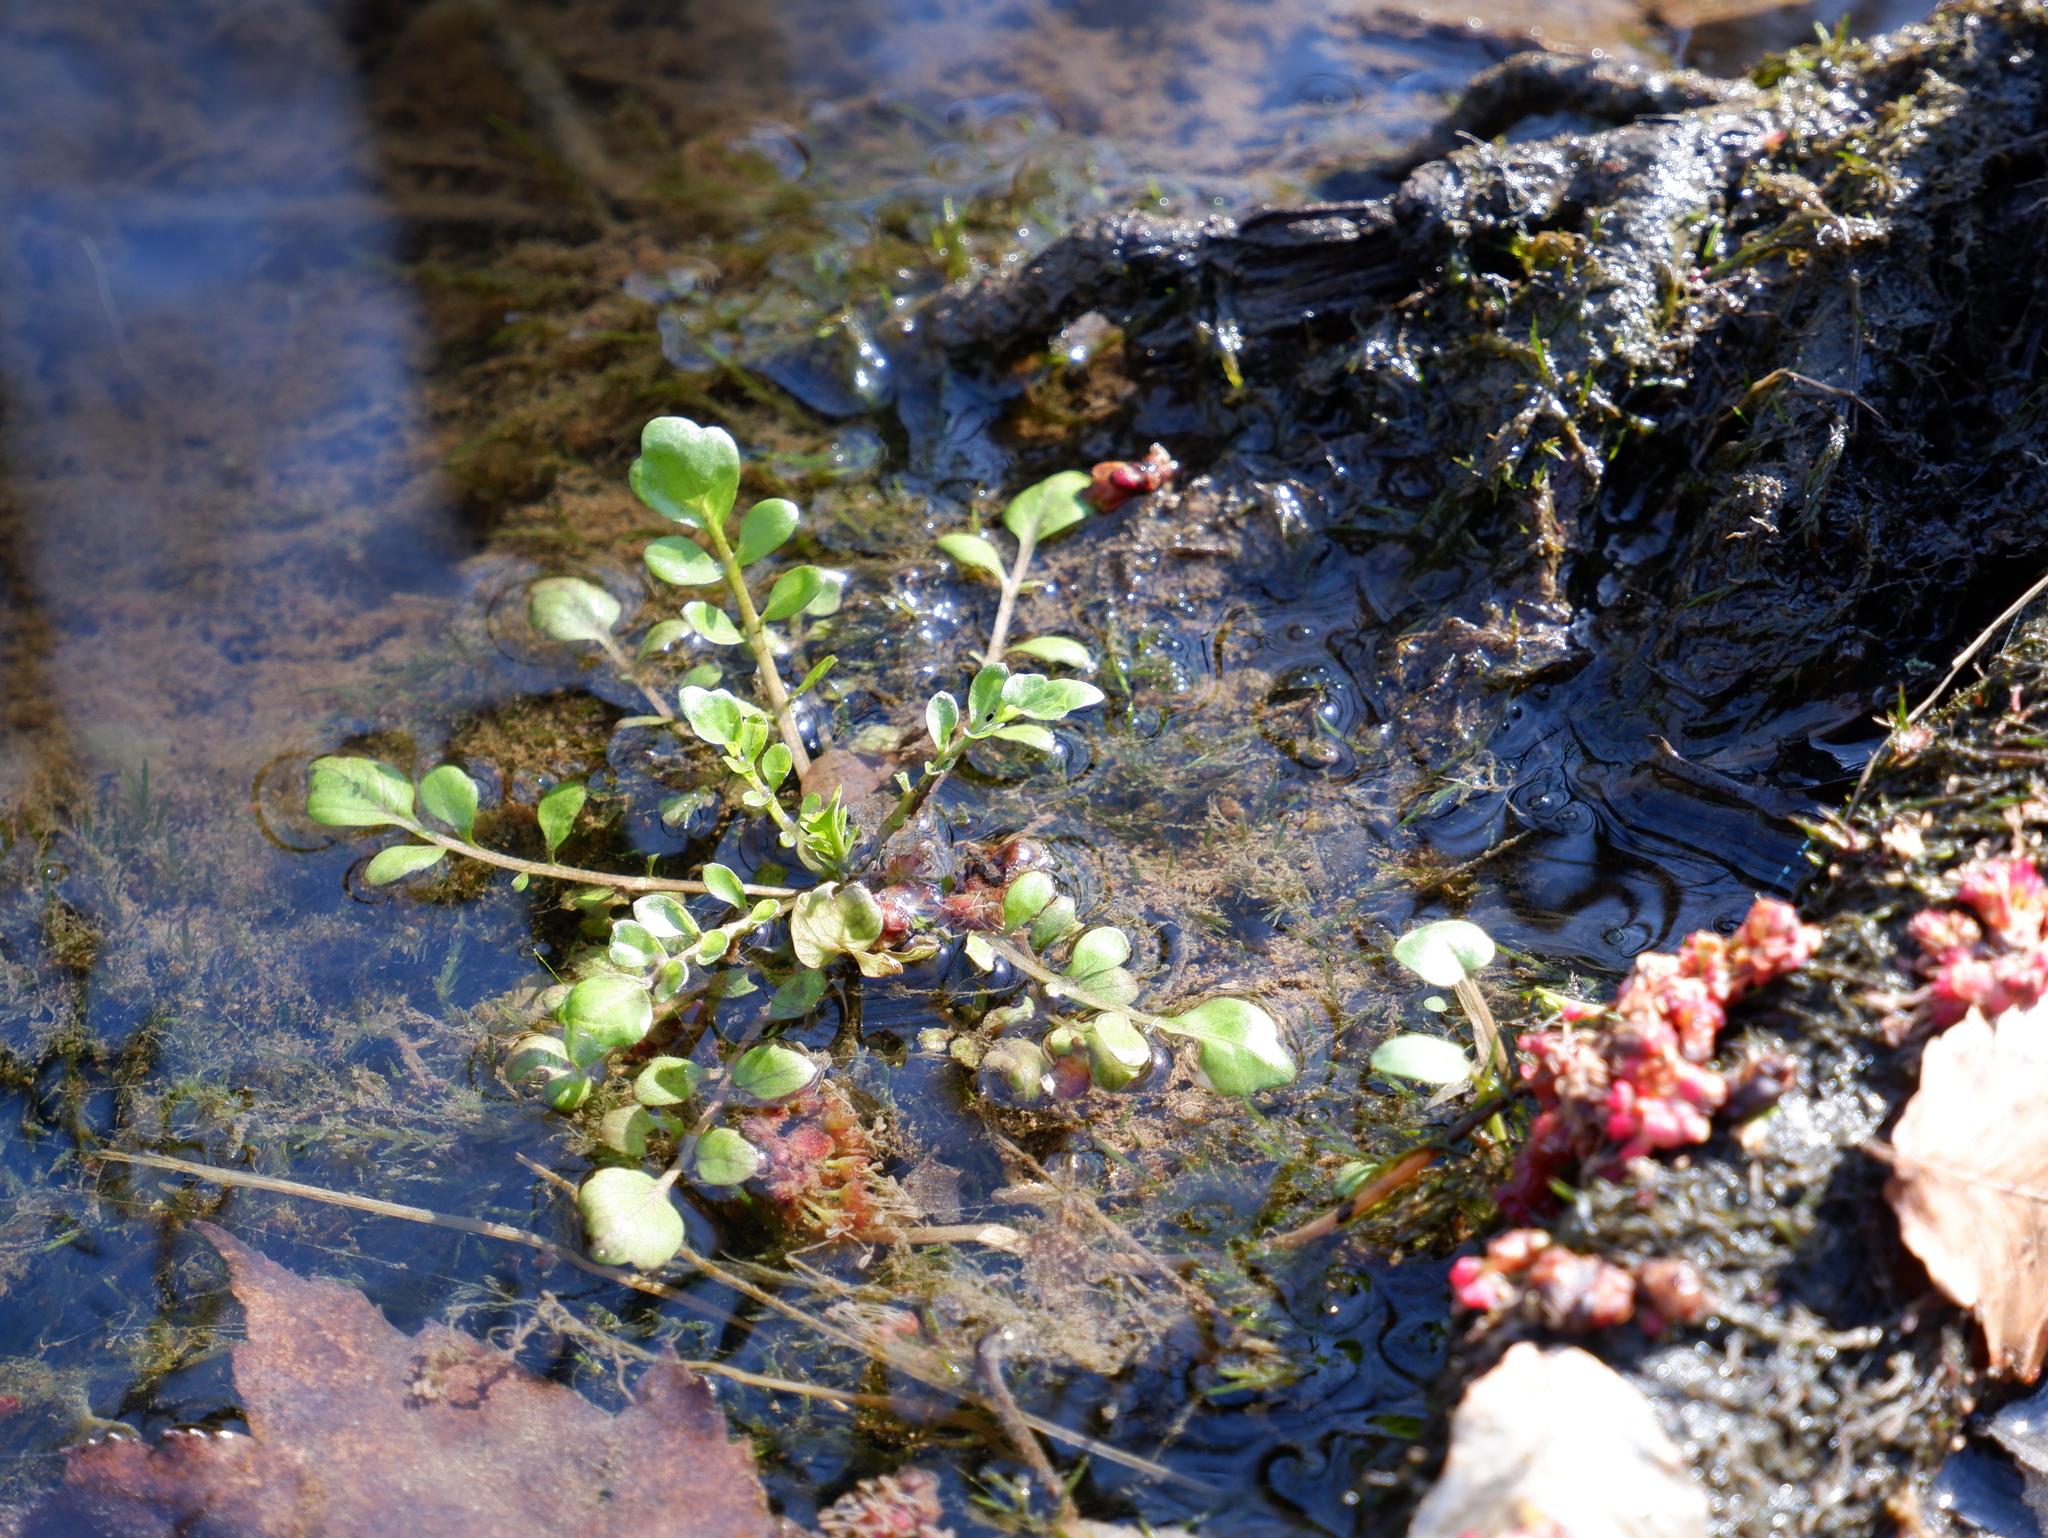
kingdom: Plantae
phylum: Tracheophyta
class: Magnoliopsida
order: Brassicales
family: Brassicaceae
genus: Cardamine
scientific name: Cardamine pensylvanica
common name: Pennsylvania bittercress
